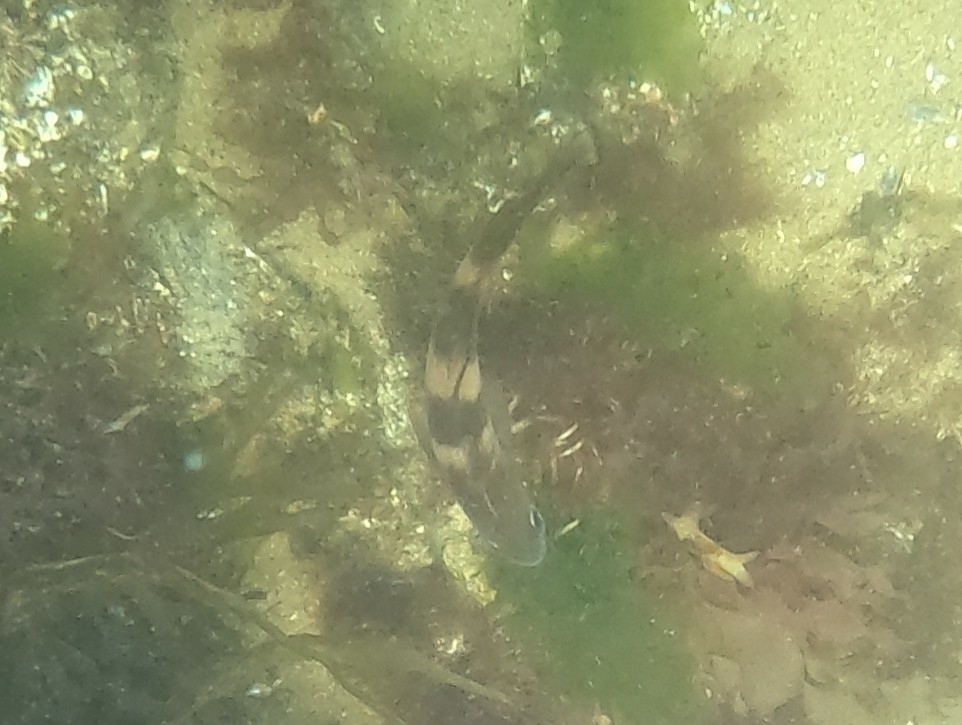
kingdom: Animalia
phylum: Chordata
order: Gadiformes
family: Gadidae
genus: Trisopterus
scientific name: Trisopterus luscus
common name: Bib
